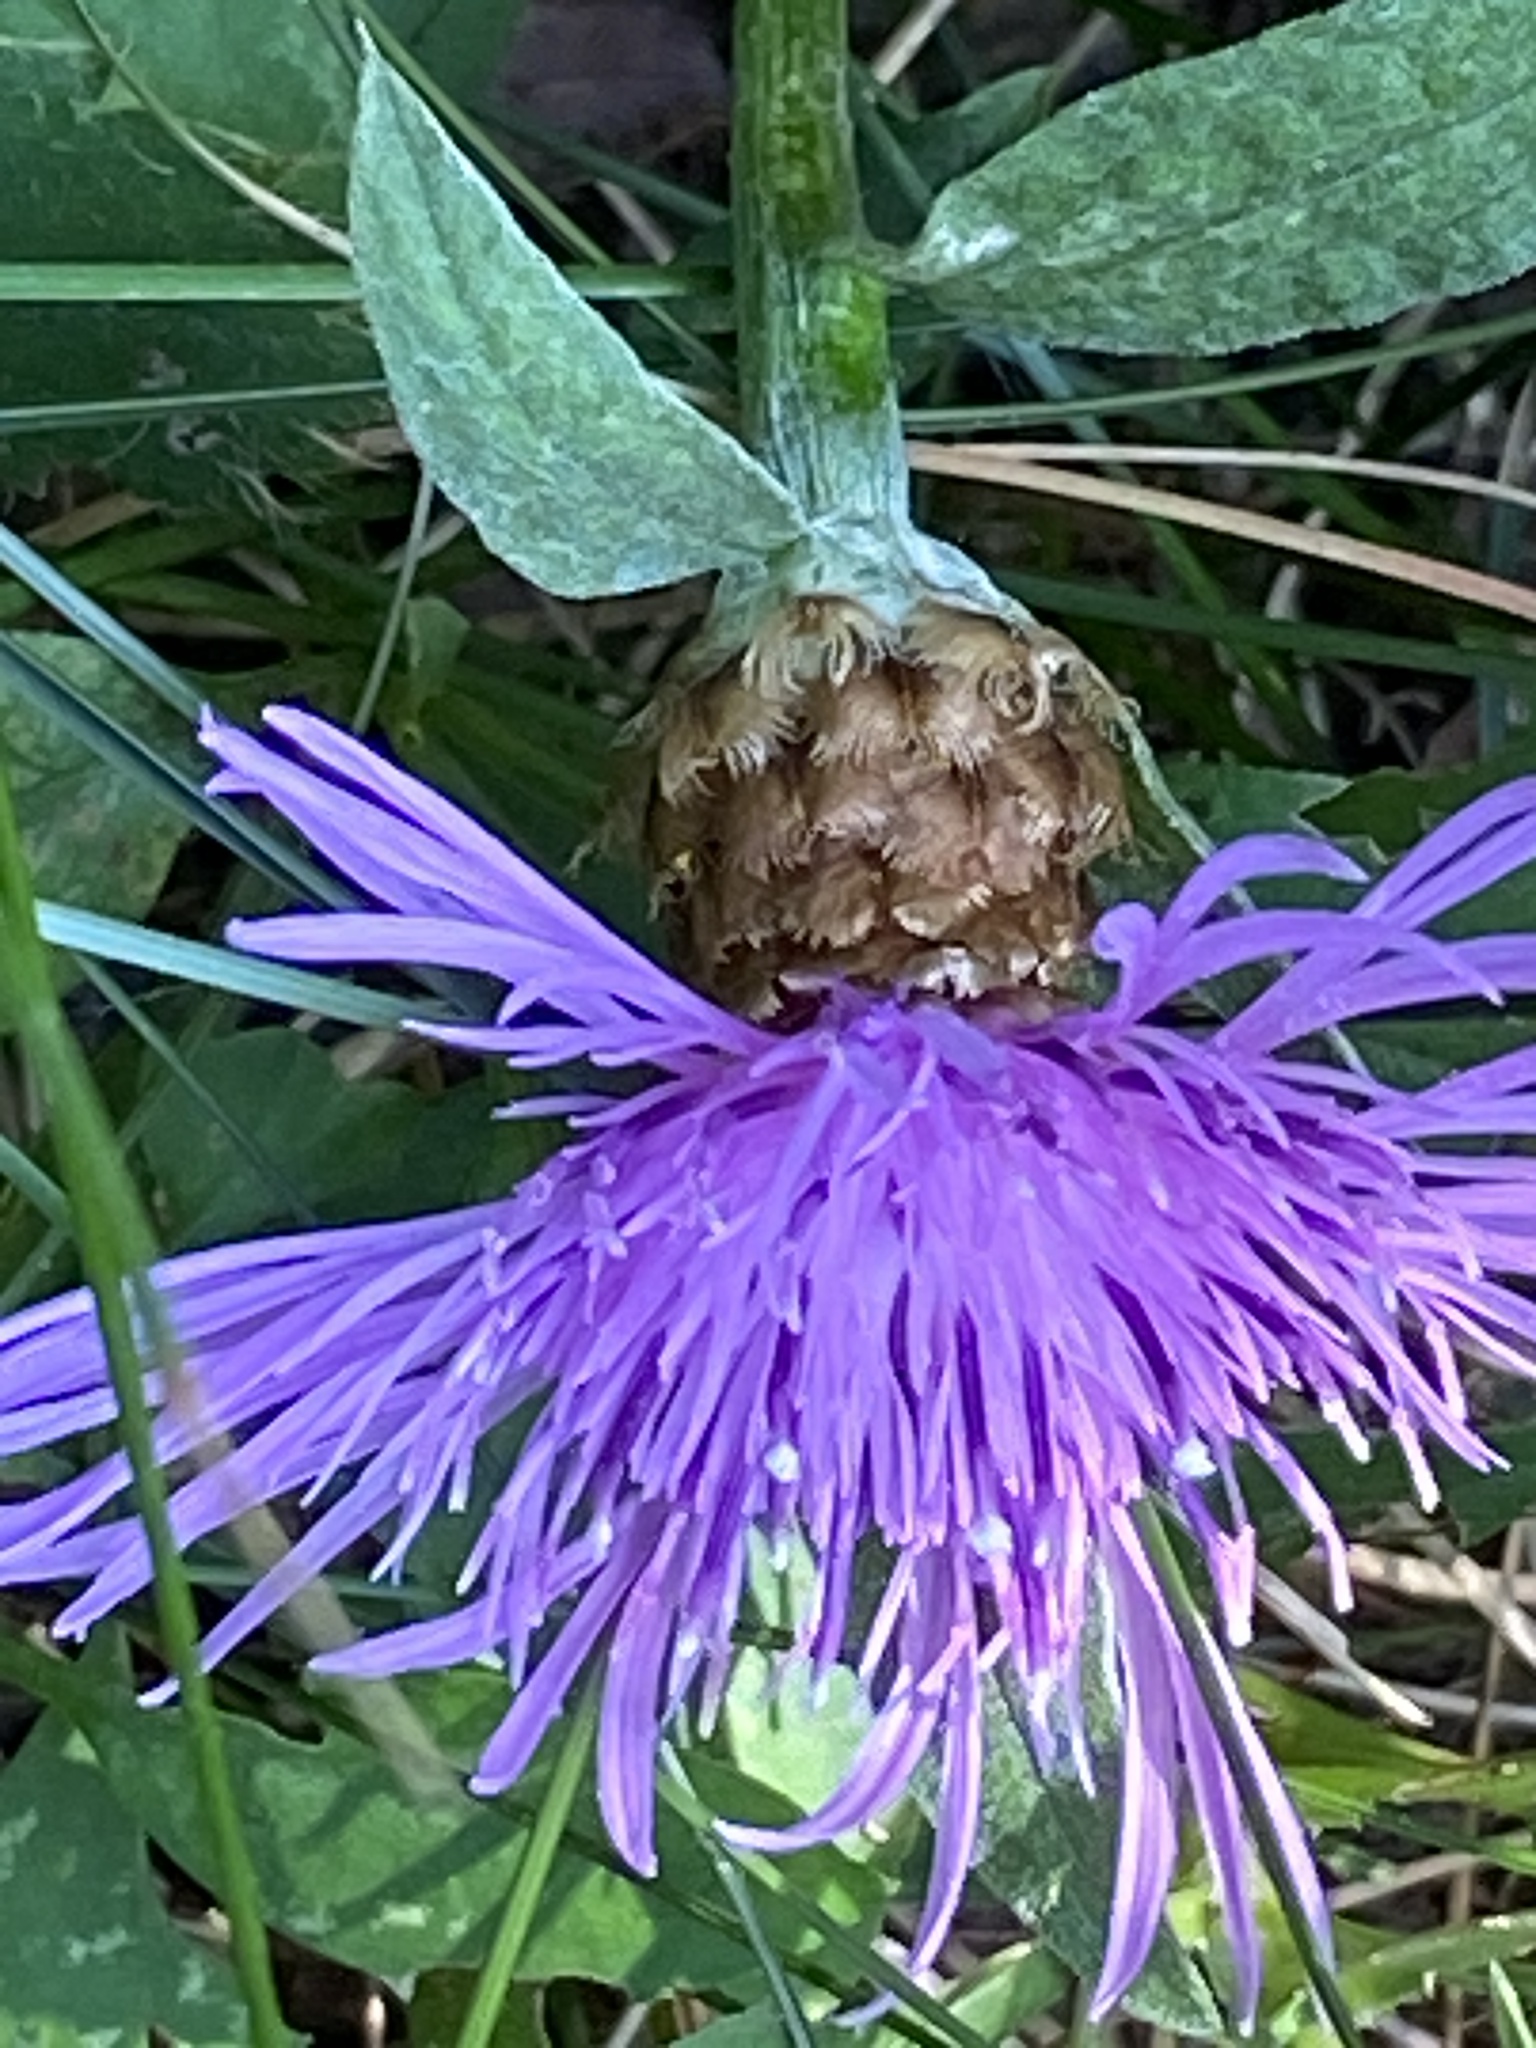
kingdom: Plantae
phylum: Tracheophyta
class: Magnoliopsida
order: Asterales
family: Asteraceae
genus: Centaurea
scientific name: Centaurea jacea
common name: Brown knapweed
